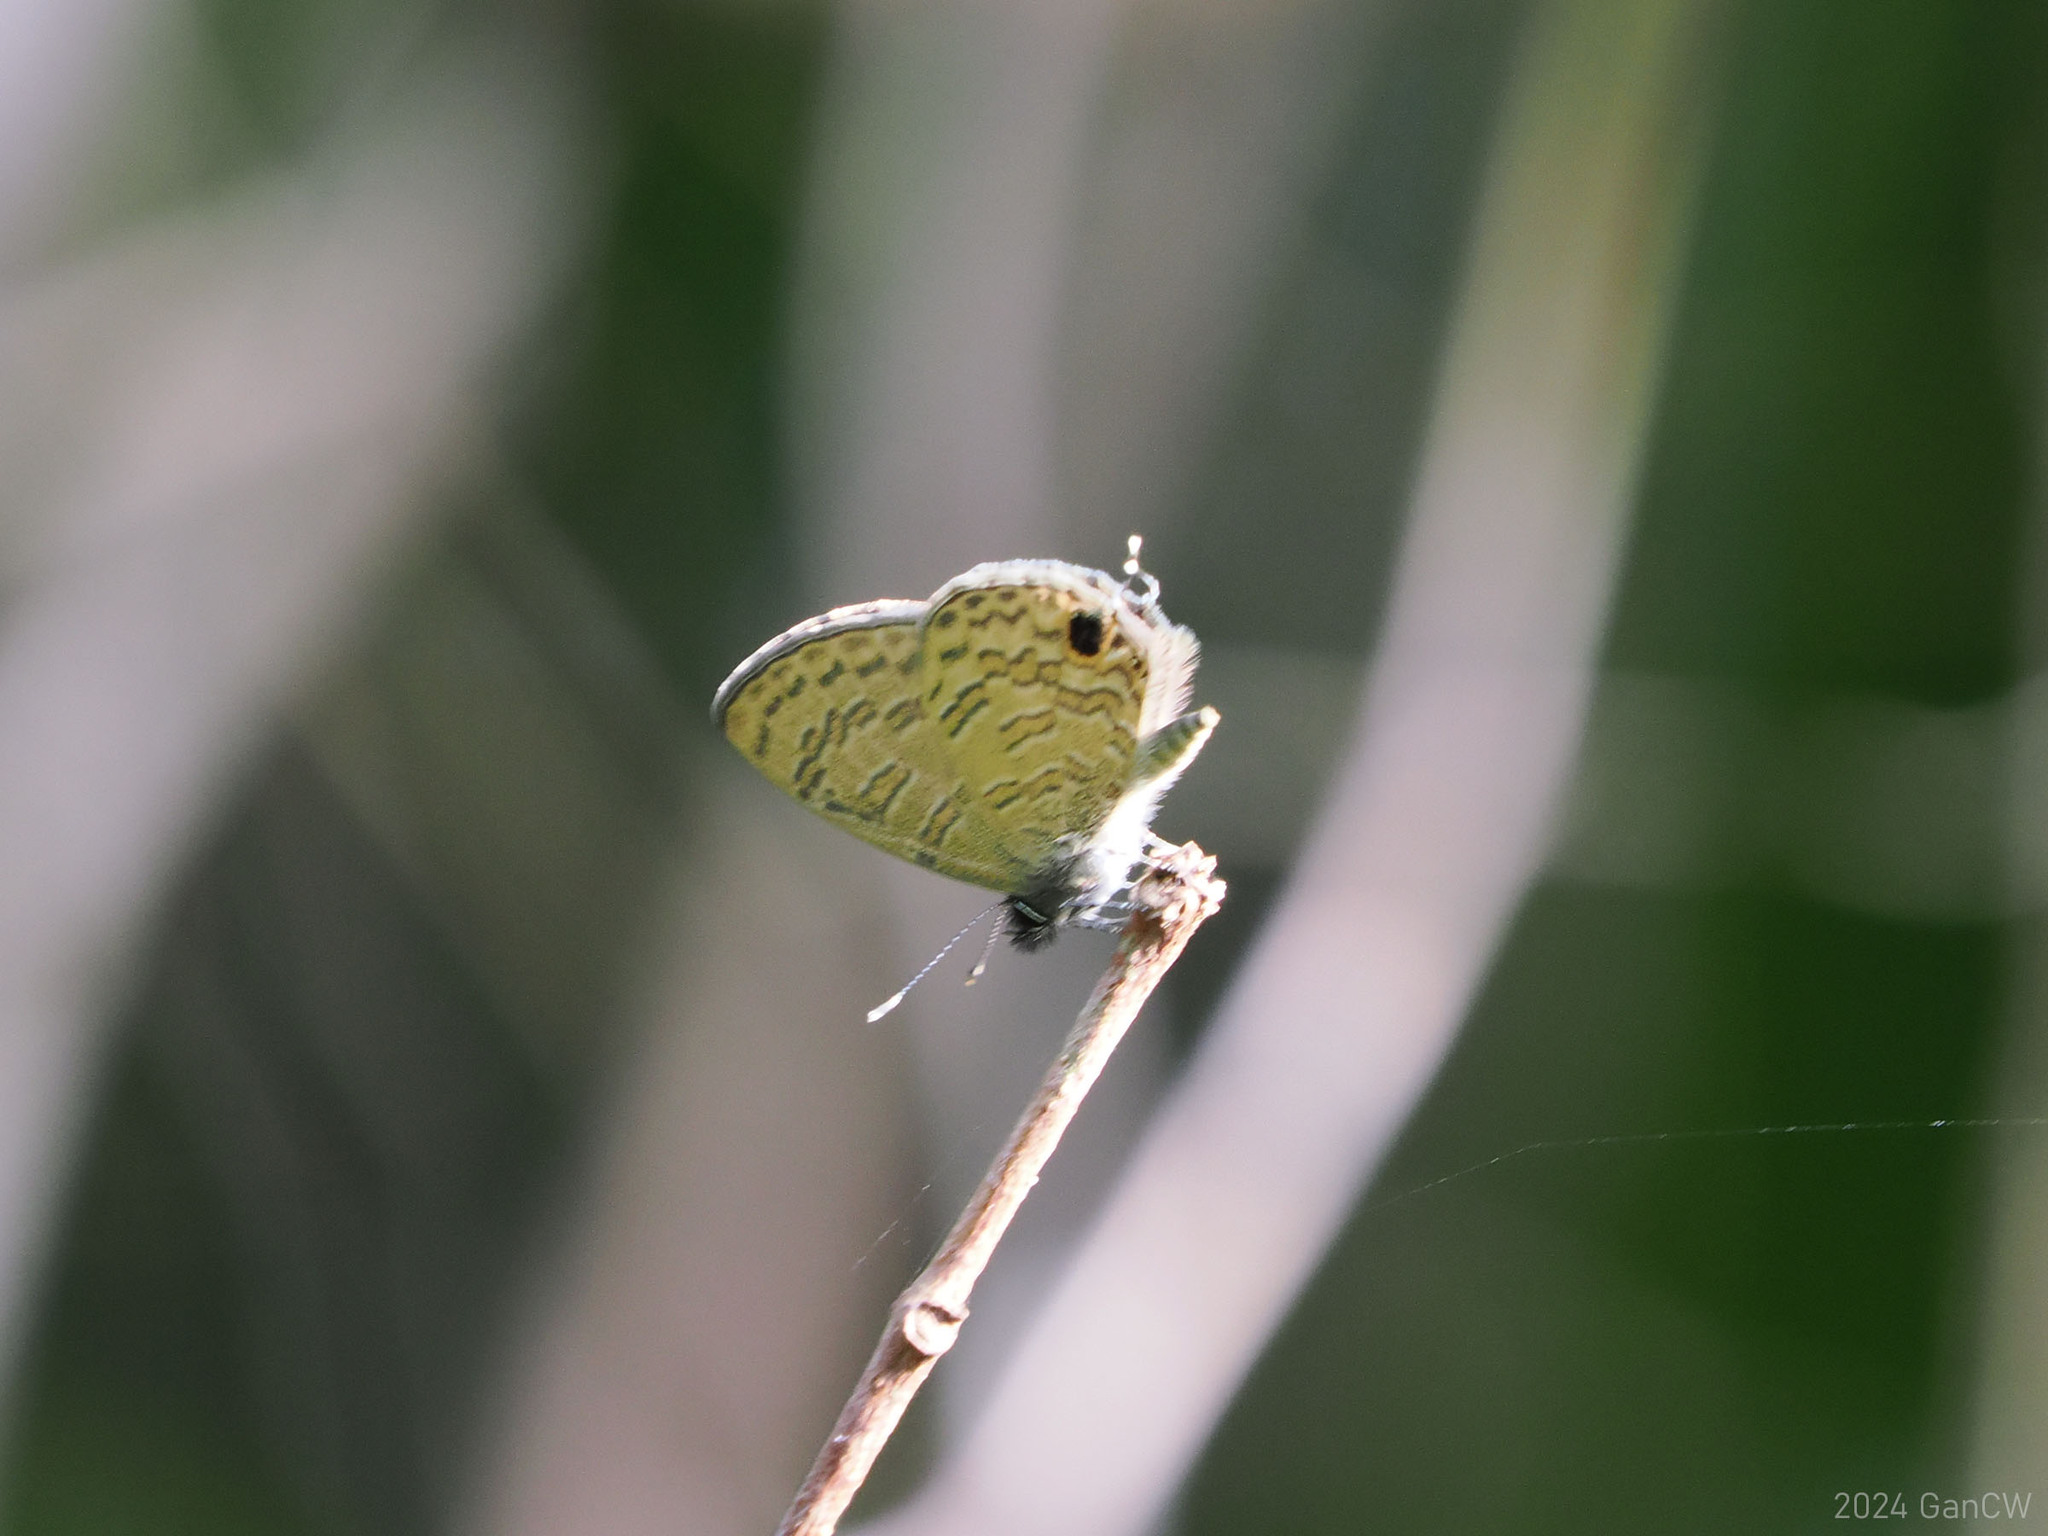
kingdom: Animalia
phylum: Arthropoda
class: Insecta
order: Lepidoptera
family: Lycaenidae
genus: Prosotas
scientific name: Prosotas nora
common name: Common line blue
